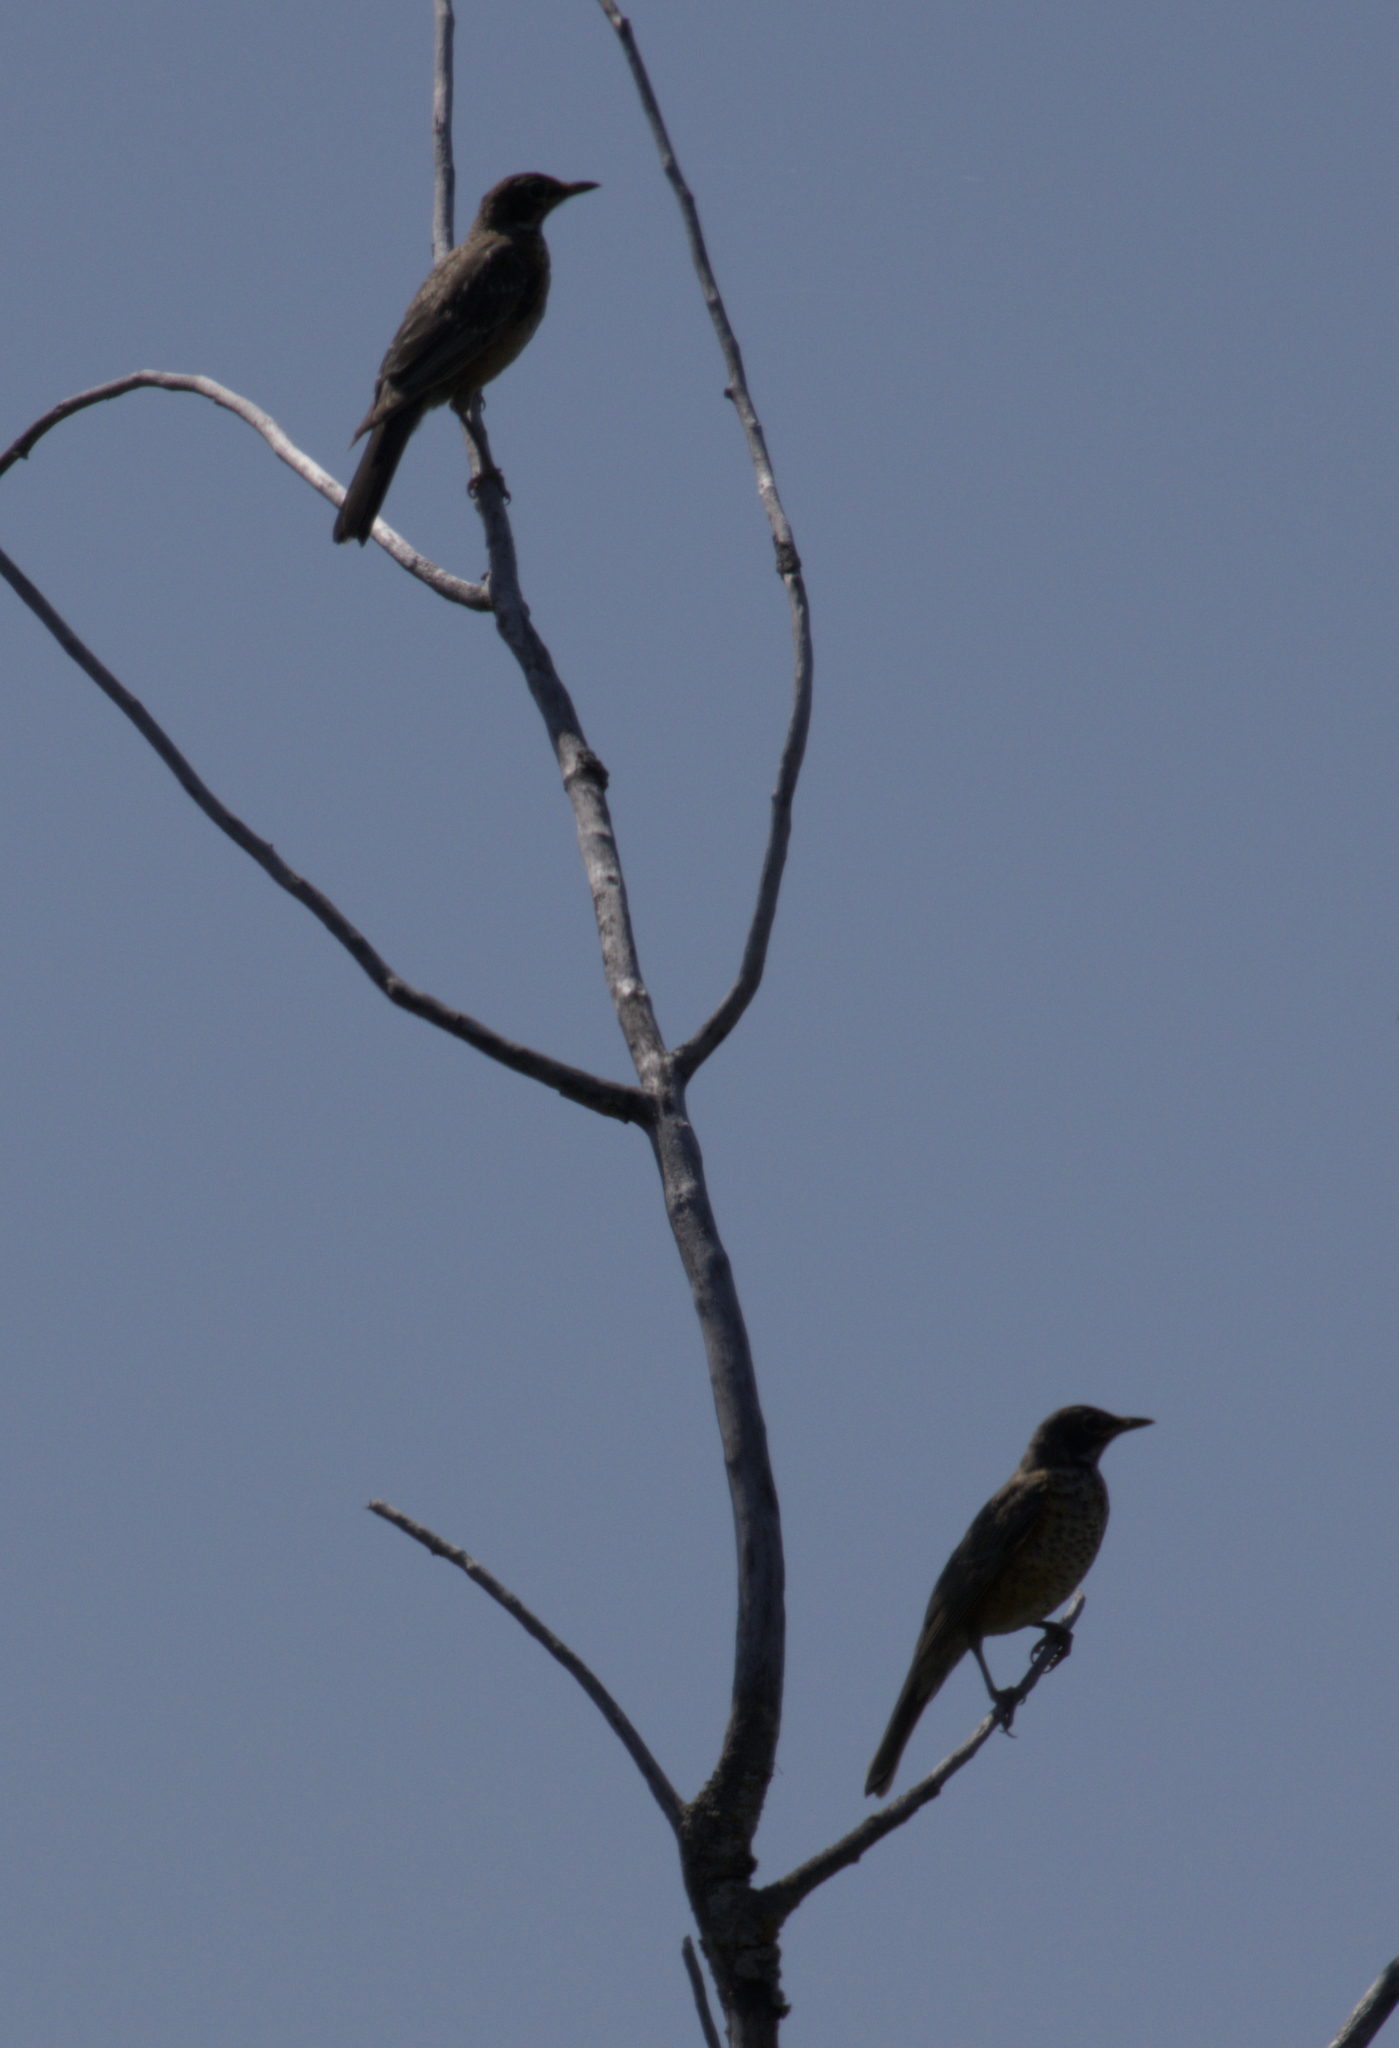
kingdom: Animalia
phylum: Chordata
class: Aves
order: Passeriformes
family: Turdidae
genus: Turdus
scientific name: Turdus migratorius
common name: American robin
